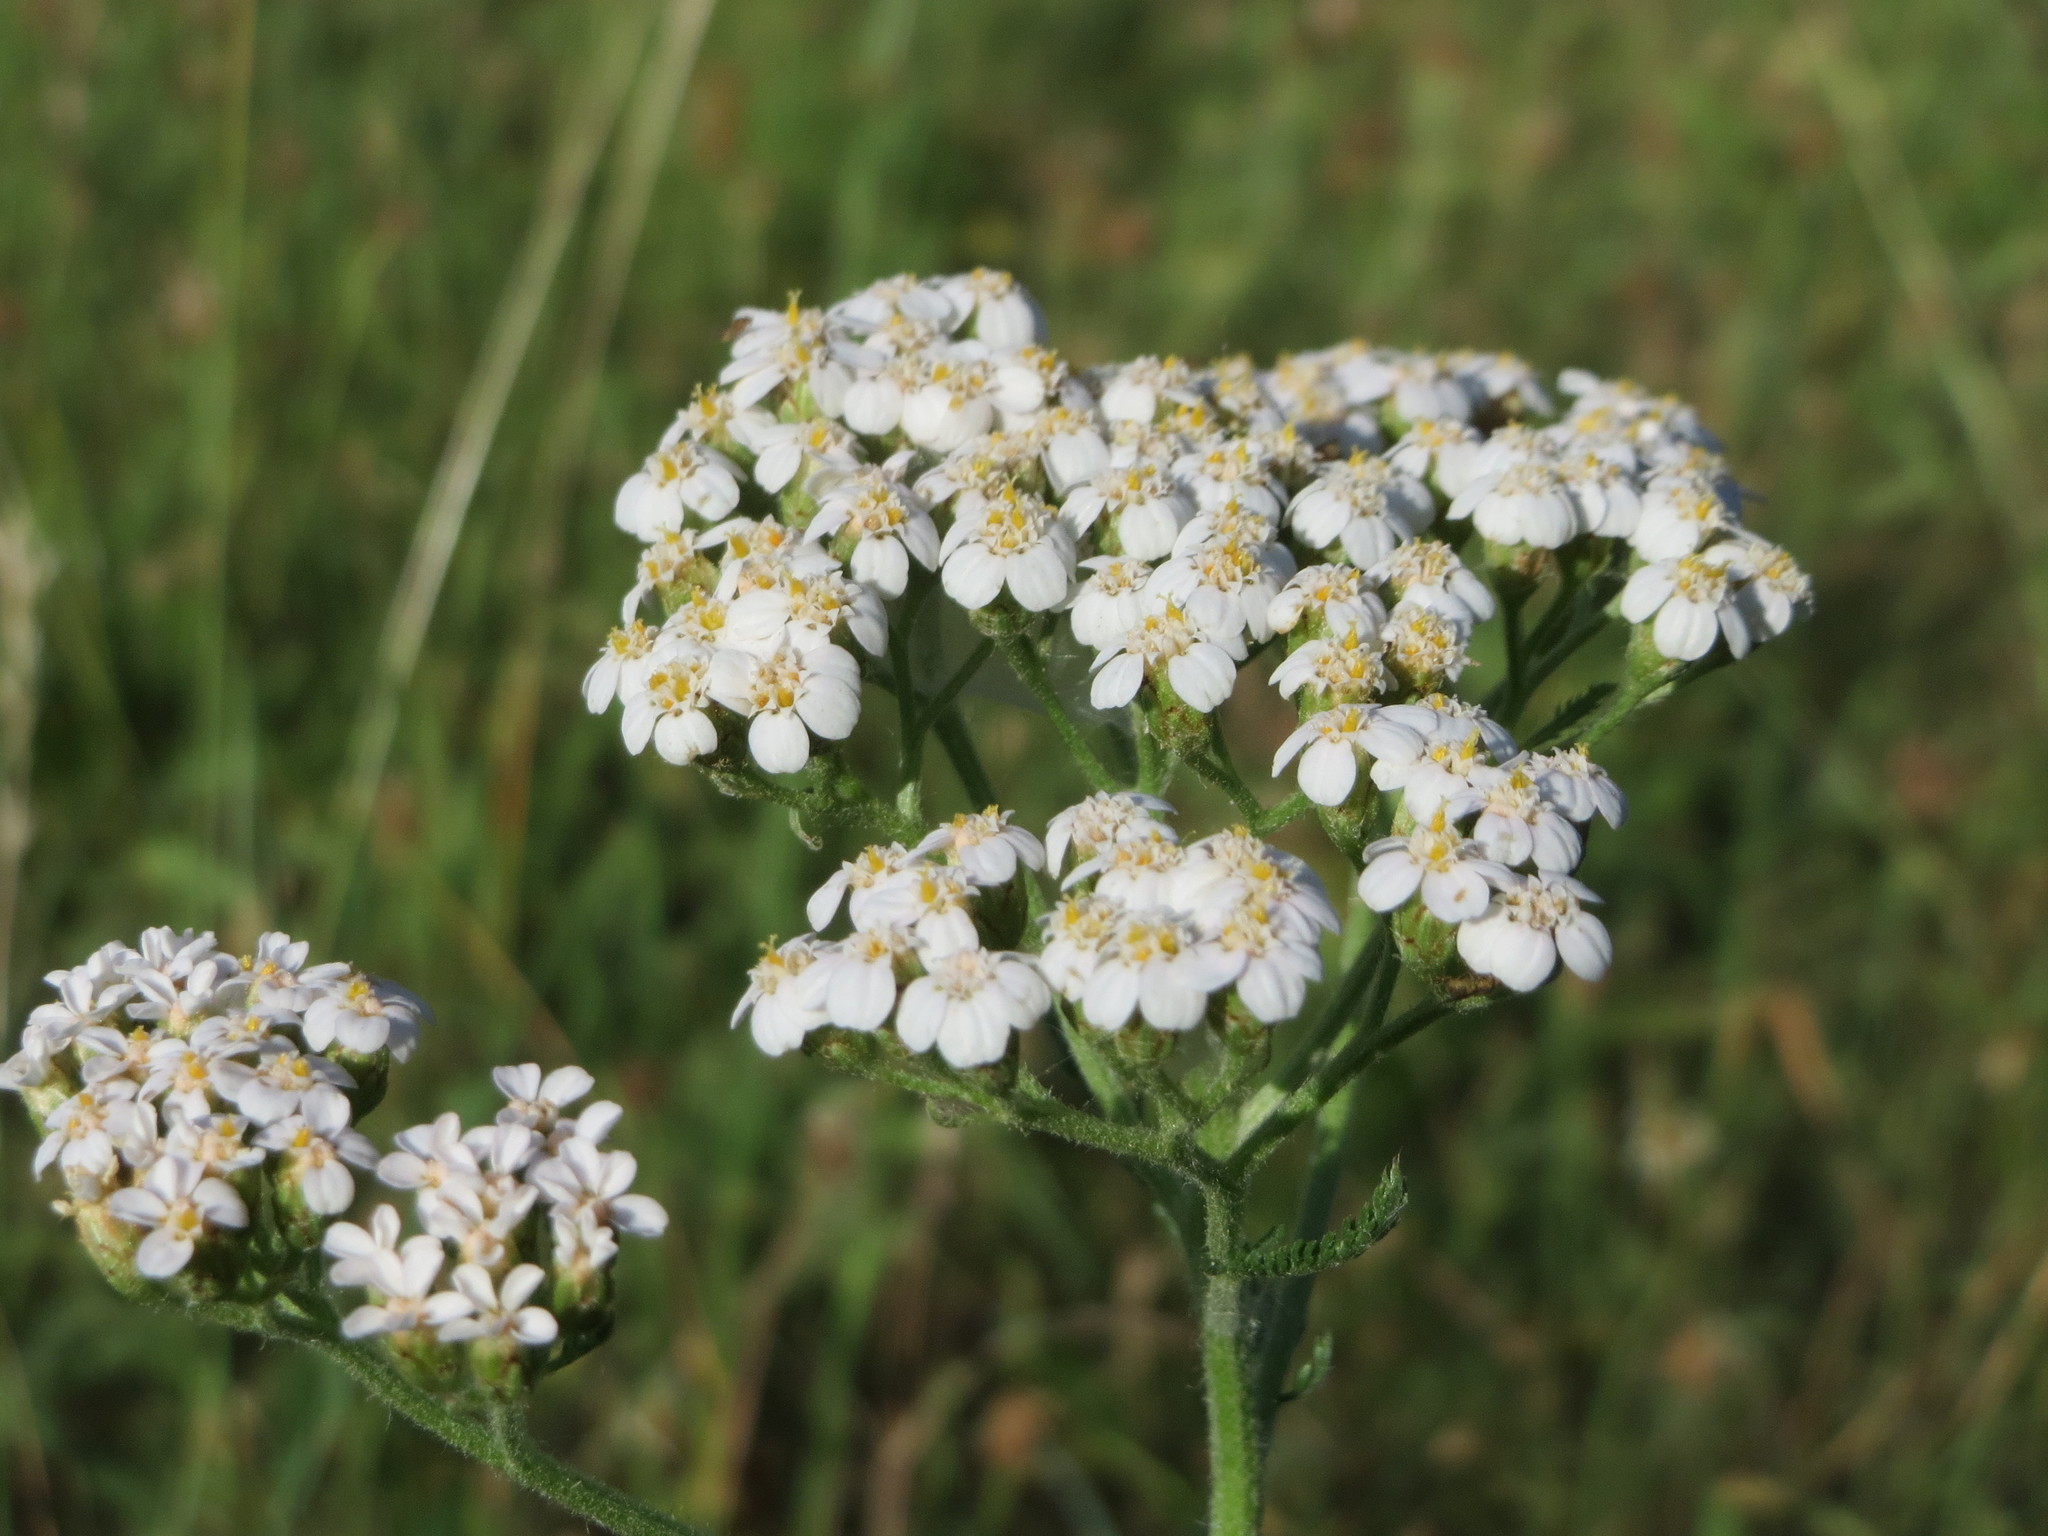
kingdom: Plantae
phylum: Tracheophyta
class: Magnoliopsida
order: Asterales
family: Asteraceae
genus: Achillea
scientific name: Achillea millefolium
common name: Yarrow
